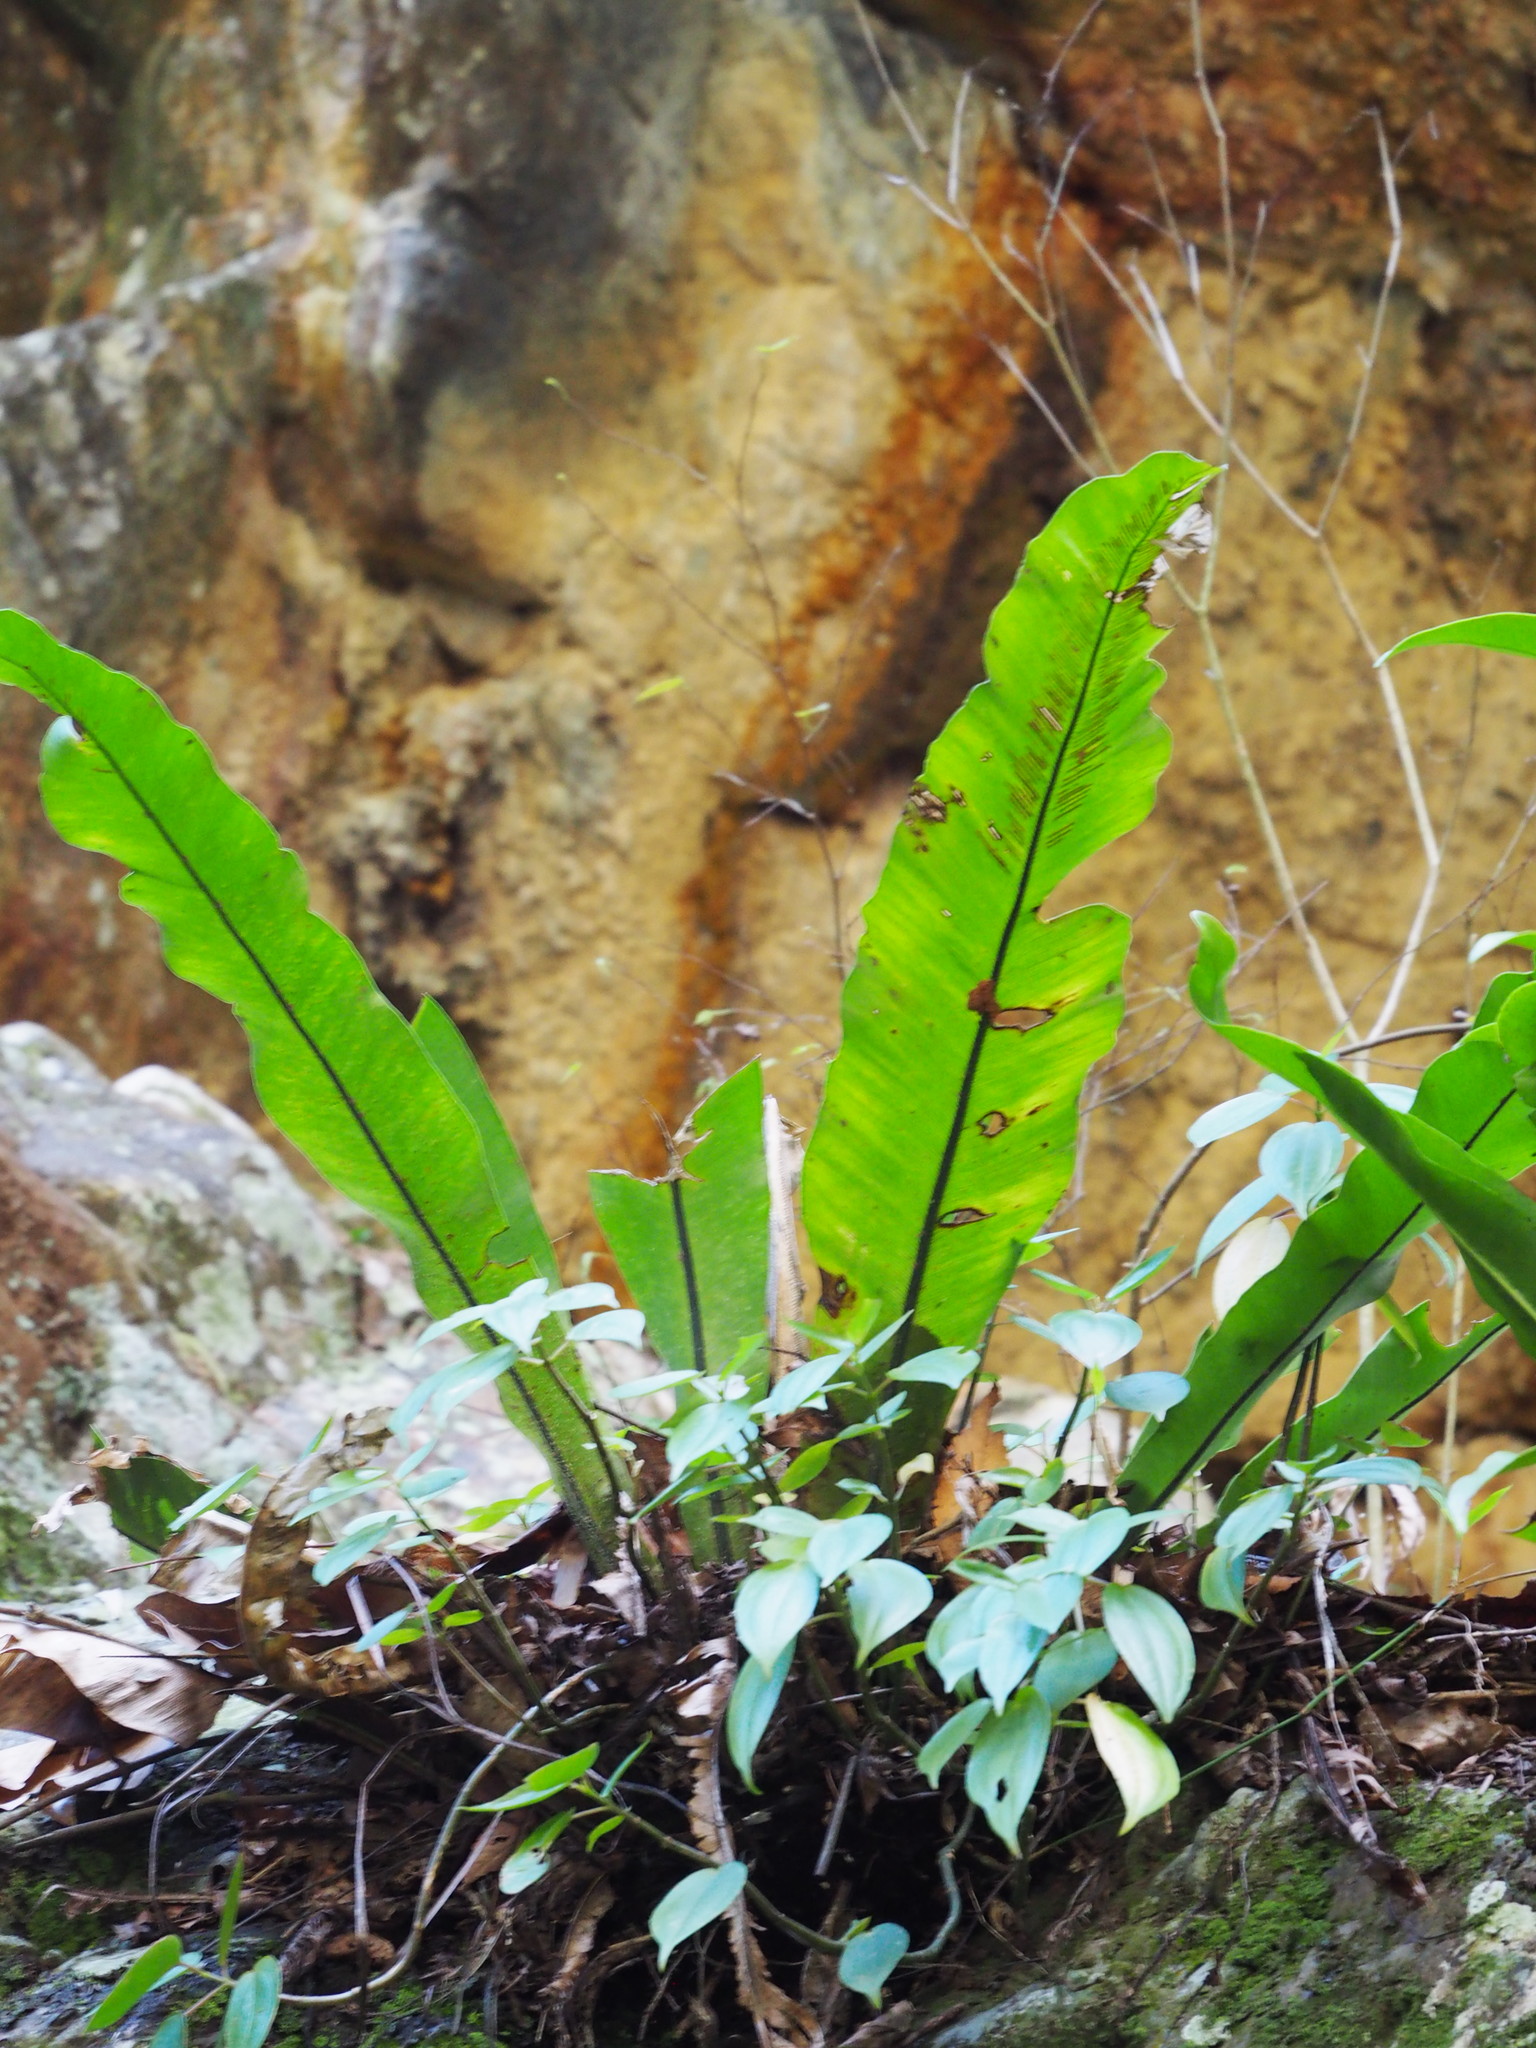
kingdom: Plantae
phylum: Tracheophyta
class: Polypodiopsida
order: Polypodiales
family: Aspleniaceae
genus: Asplenium
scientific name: Asplenium nidus
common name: Bird's-nest fern
